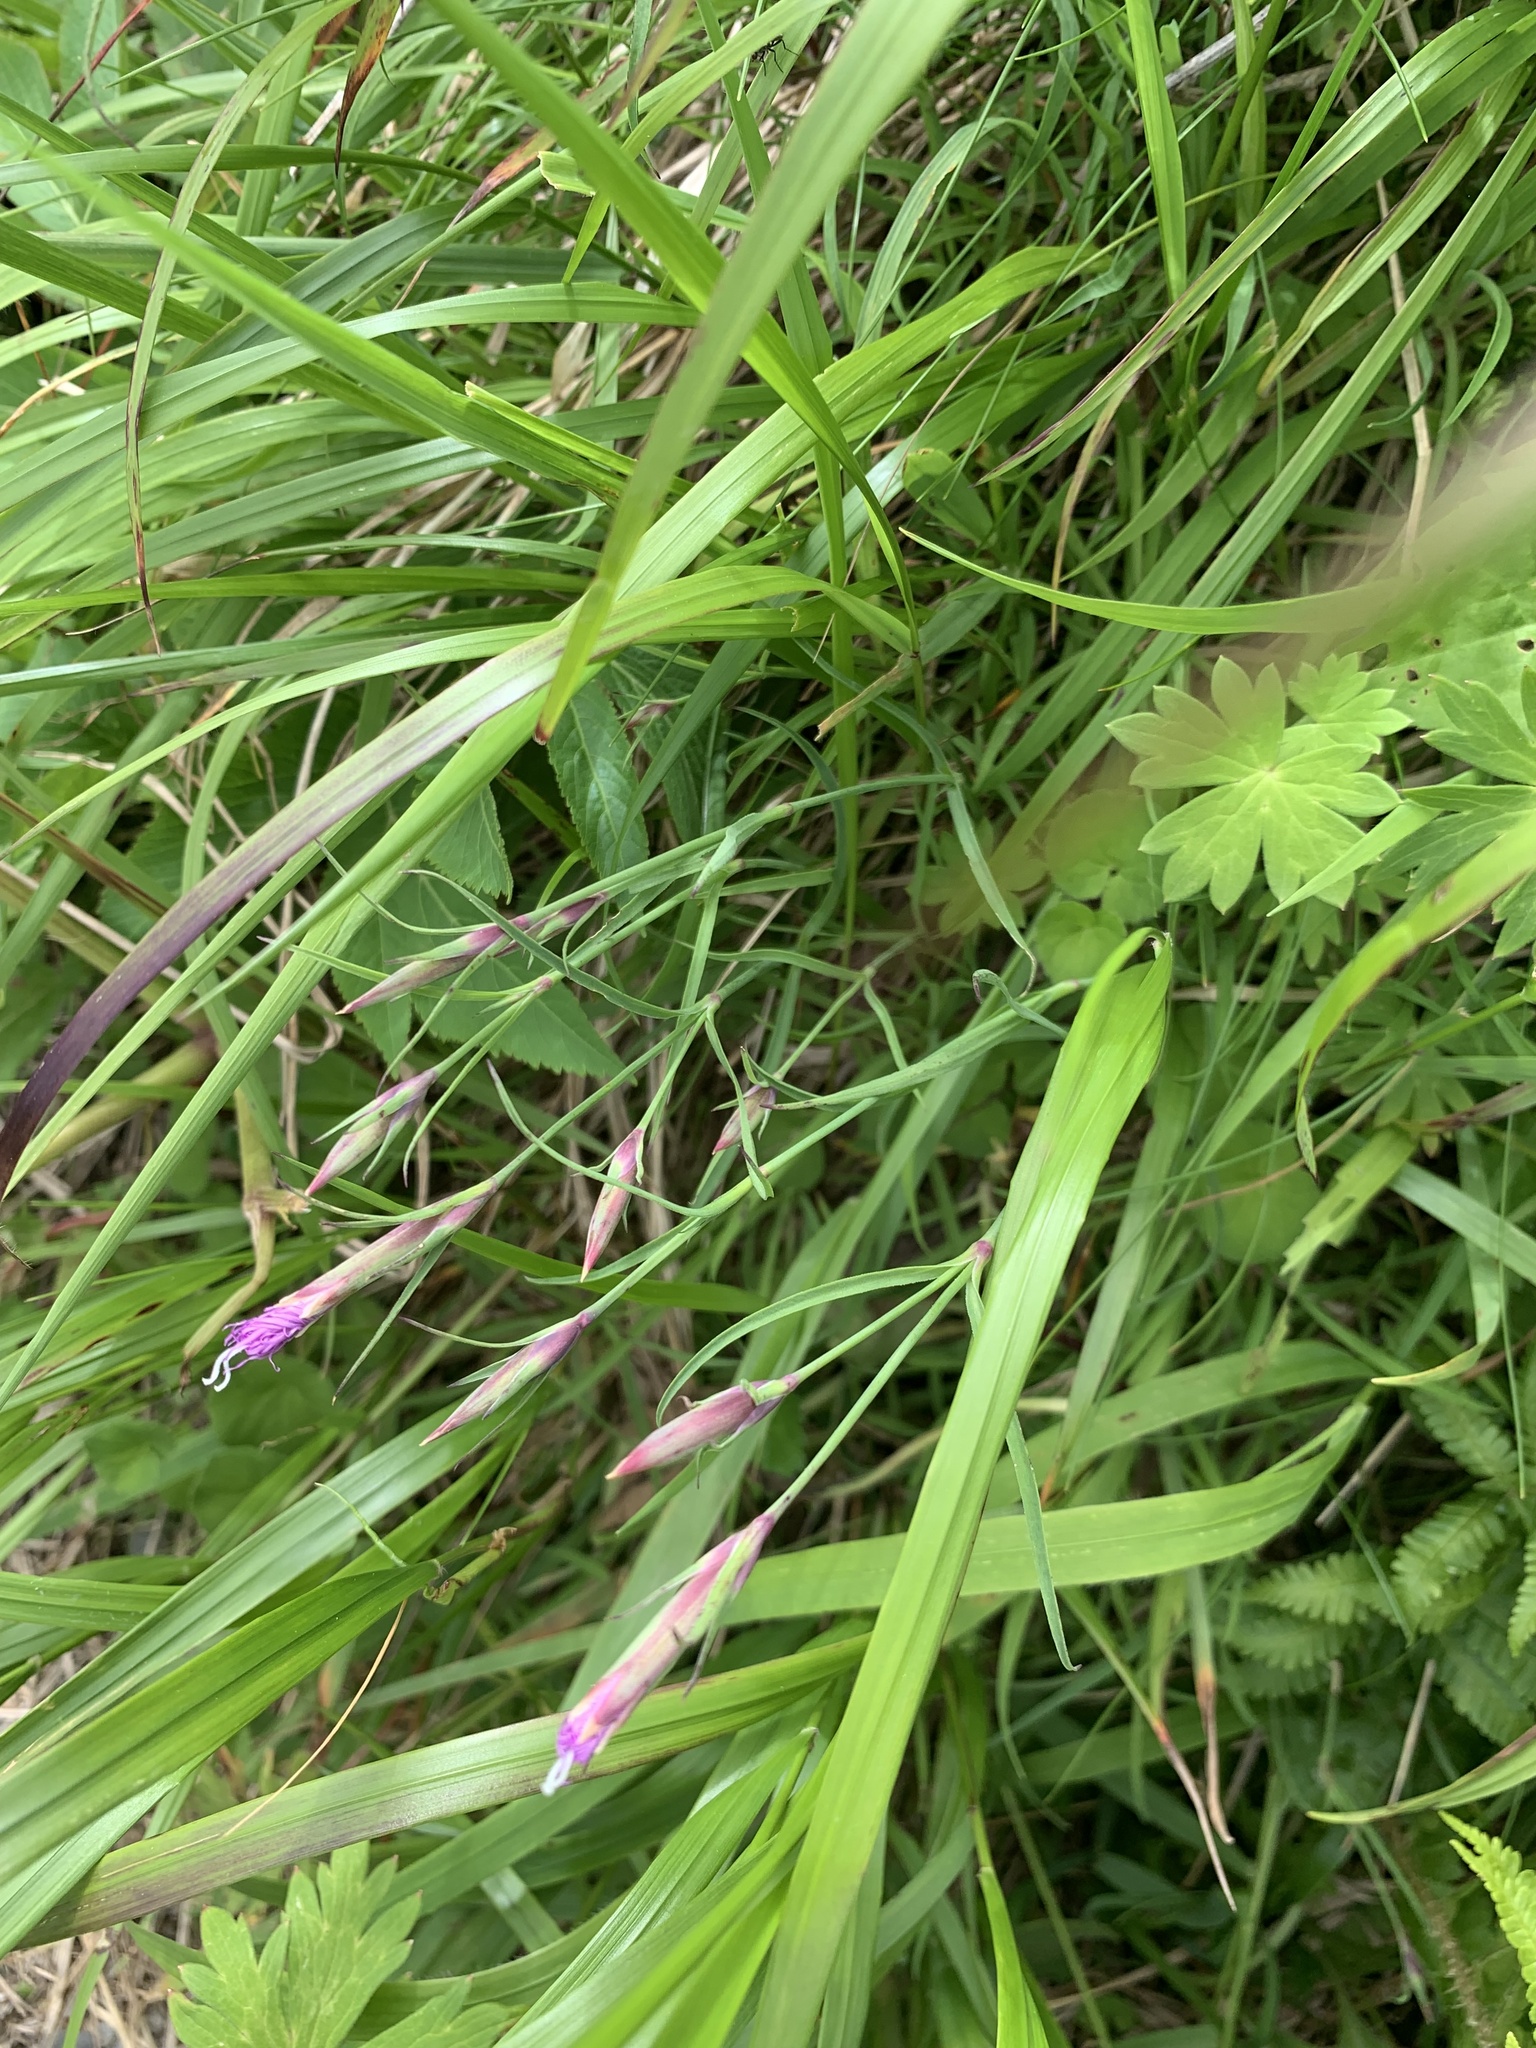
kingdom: Plantae
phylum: Tracheophyta
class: Magnoliopsida
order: Caryophyllales
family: Caryophyllaceae
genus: Dianthus
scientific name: Dianthus superbus
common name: Fringed pink
